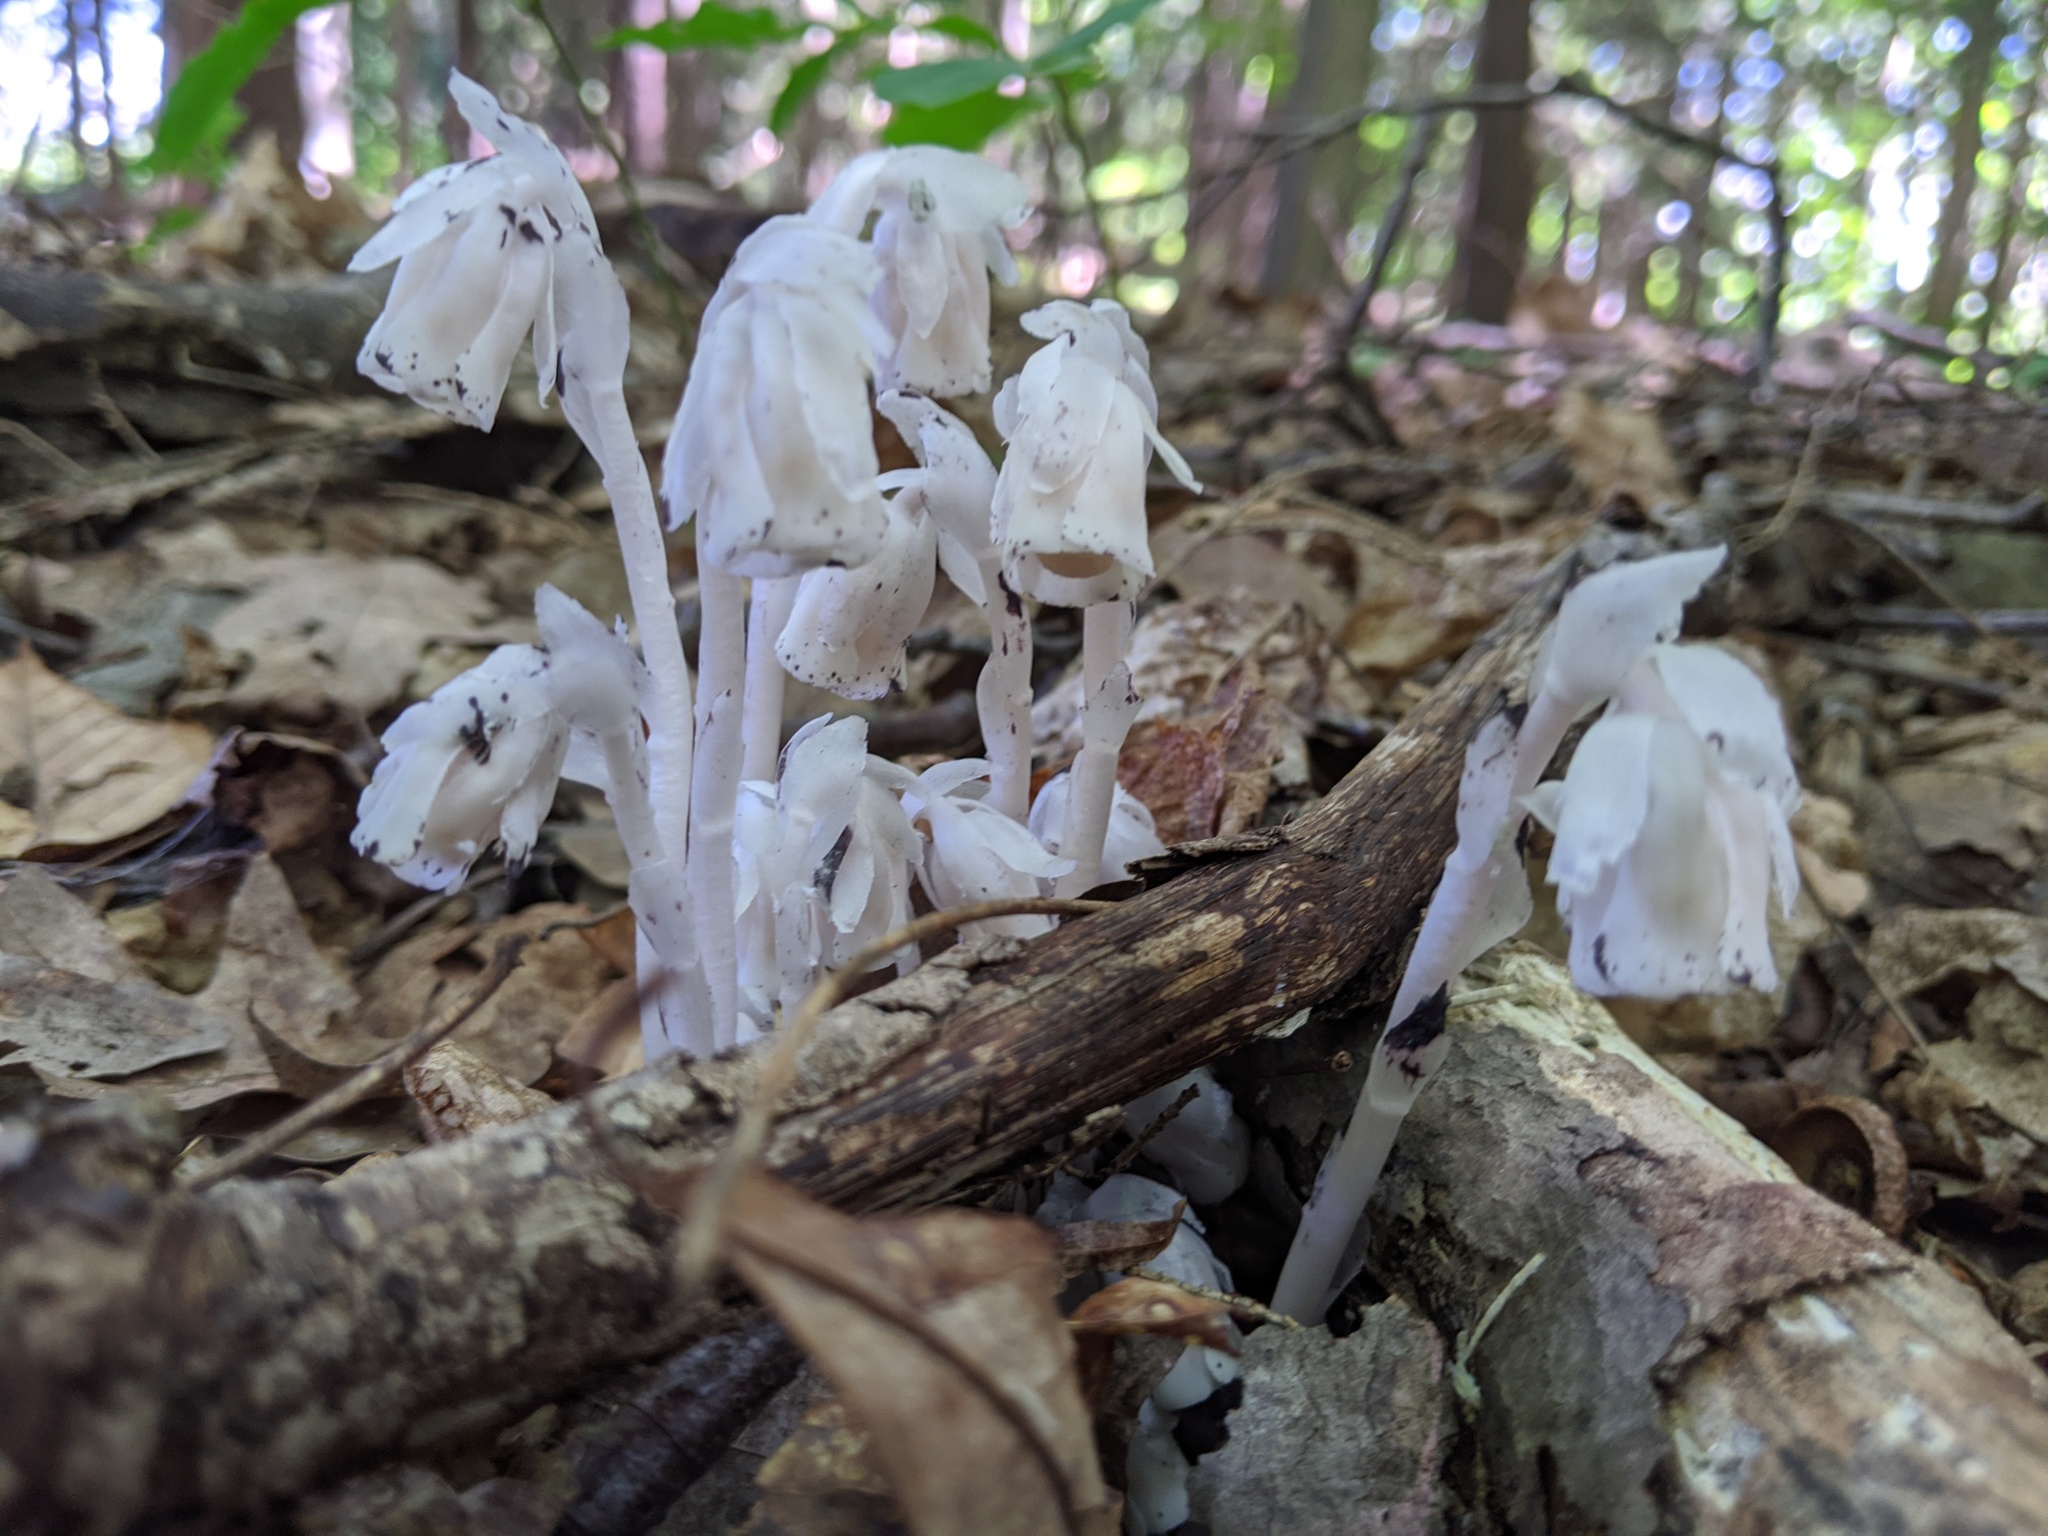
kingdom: Plantae
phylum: Tracheophyta
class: Magnoliopsida
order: Ericales
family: Ericaceae
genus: Monotropa
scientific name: Monotropa uniflora
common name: Convulsion root
